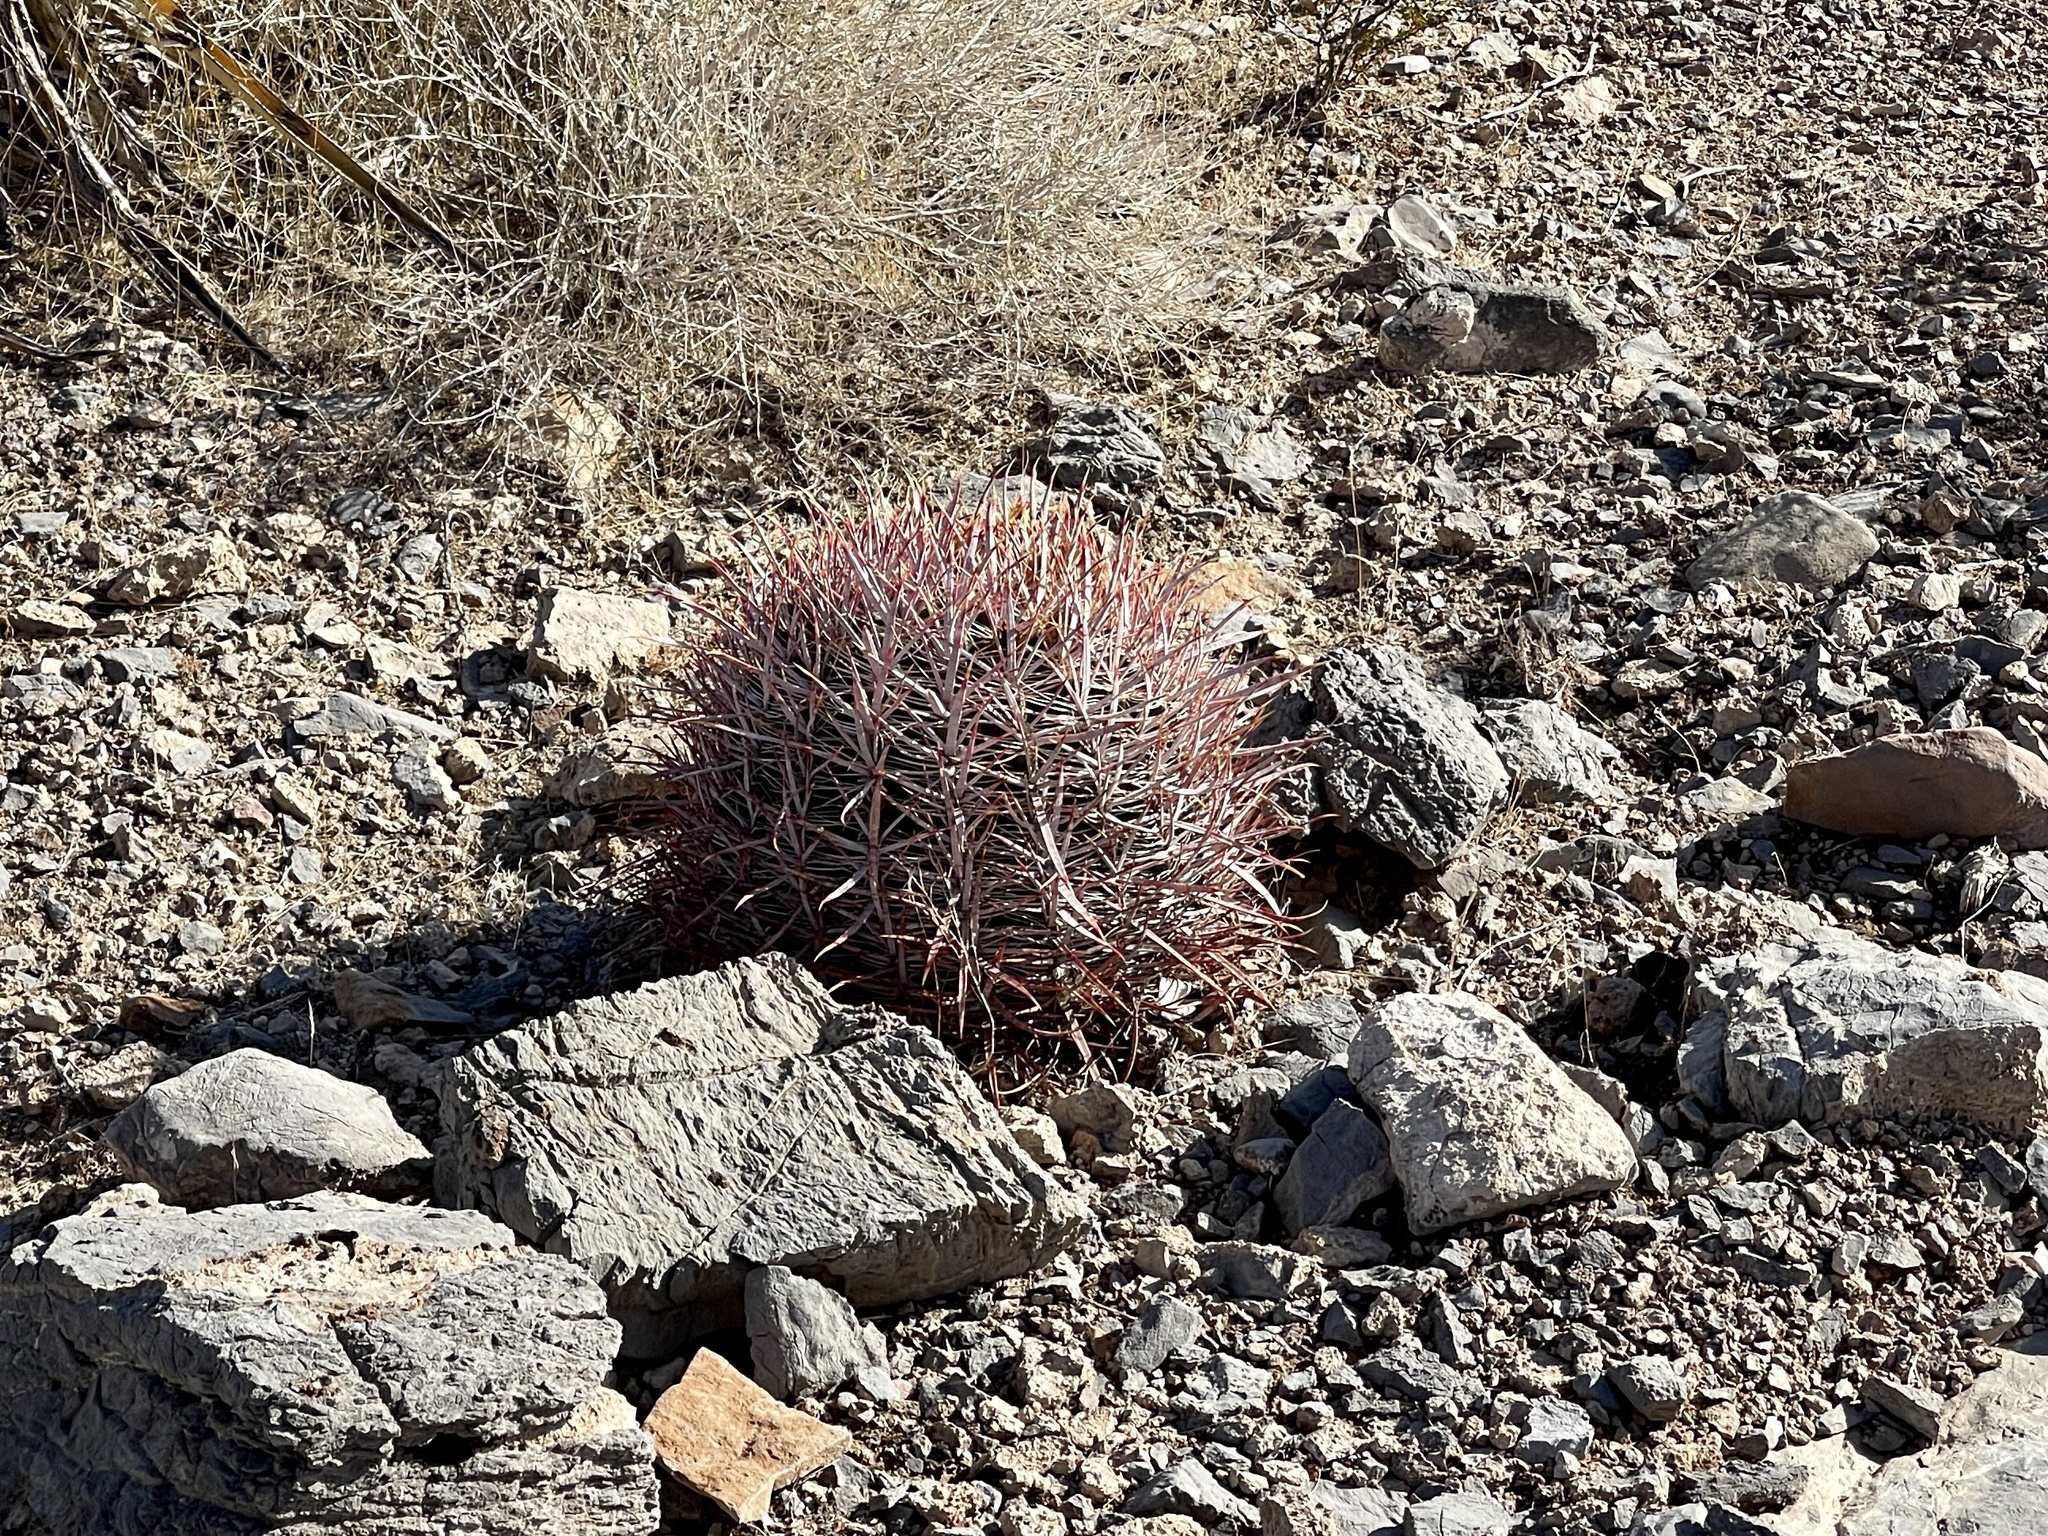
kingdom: Plantae
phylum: Tracheophyta
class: Magnoliopsida
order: Caryophyllales
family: Cactaceae
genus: Ferocactus
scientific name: Ferocactus cylindraceus
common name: California barrel cactus
